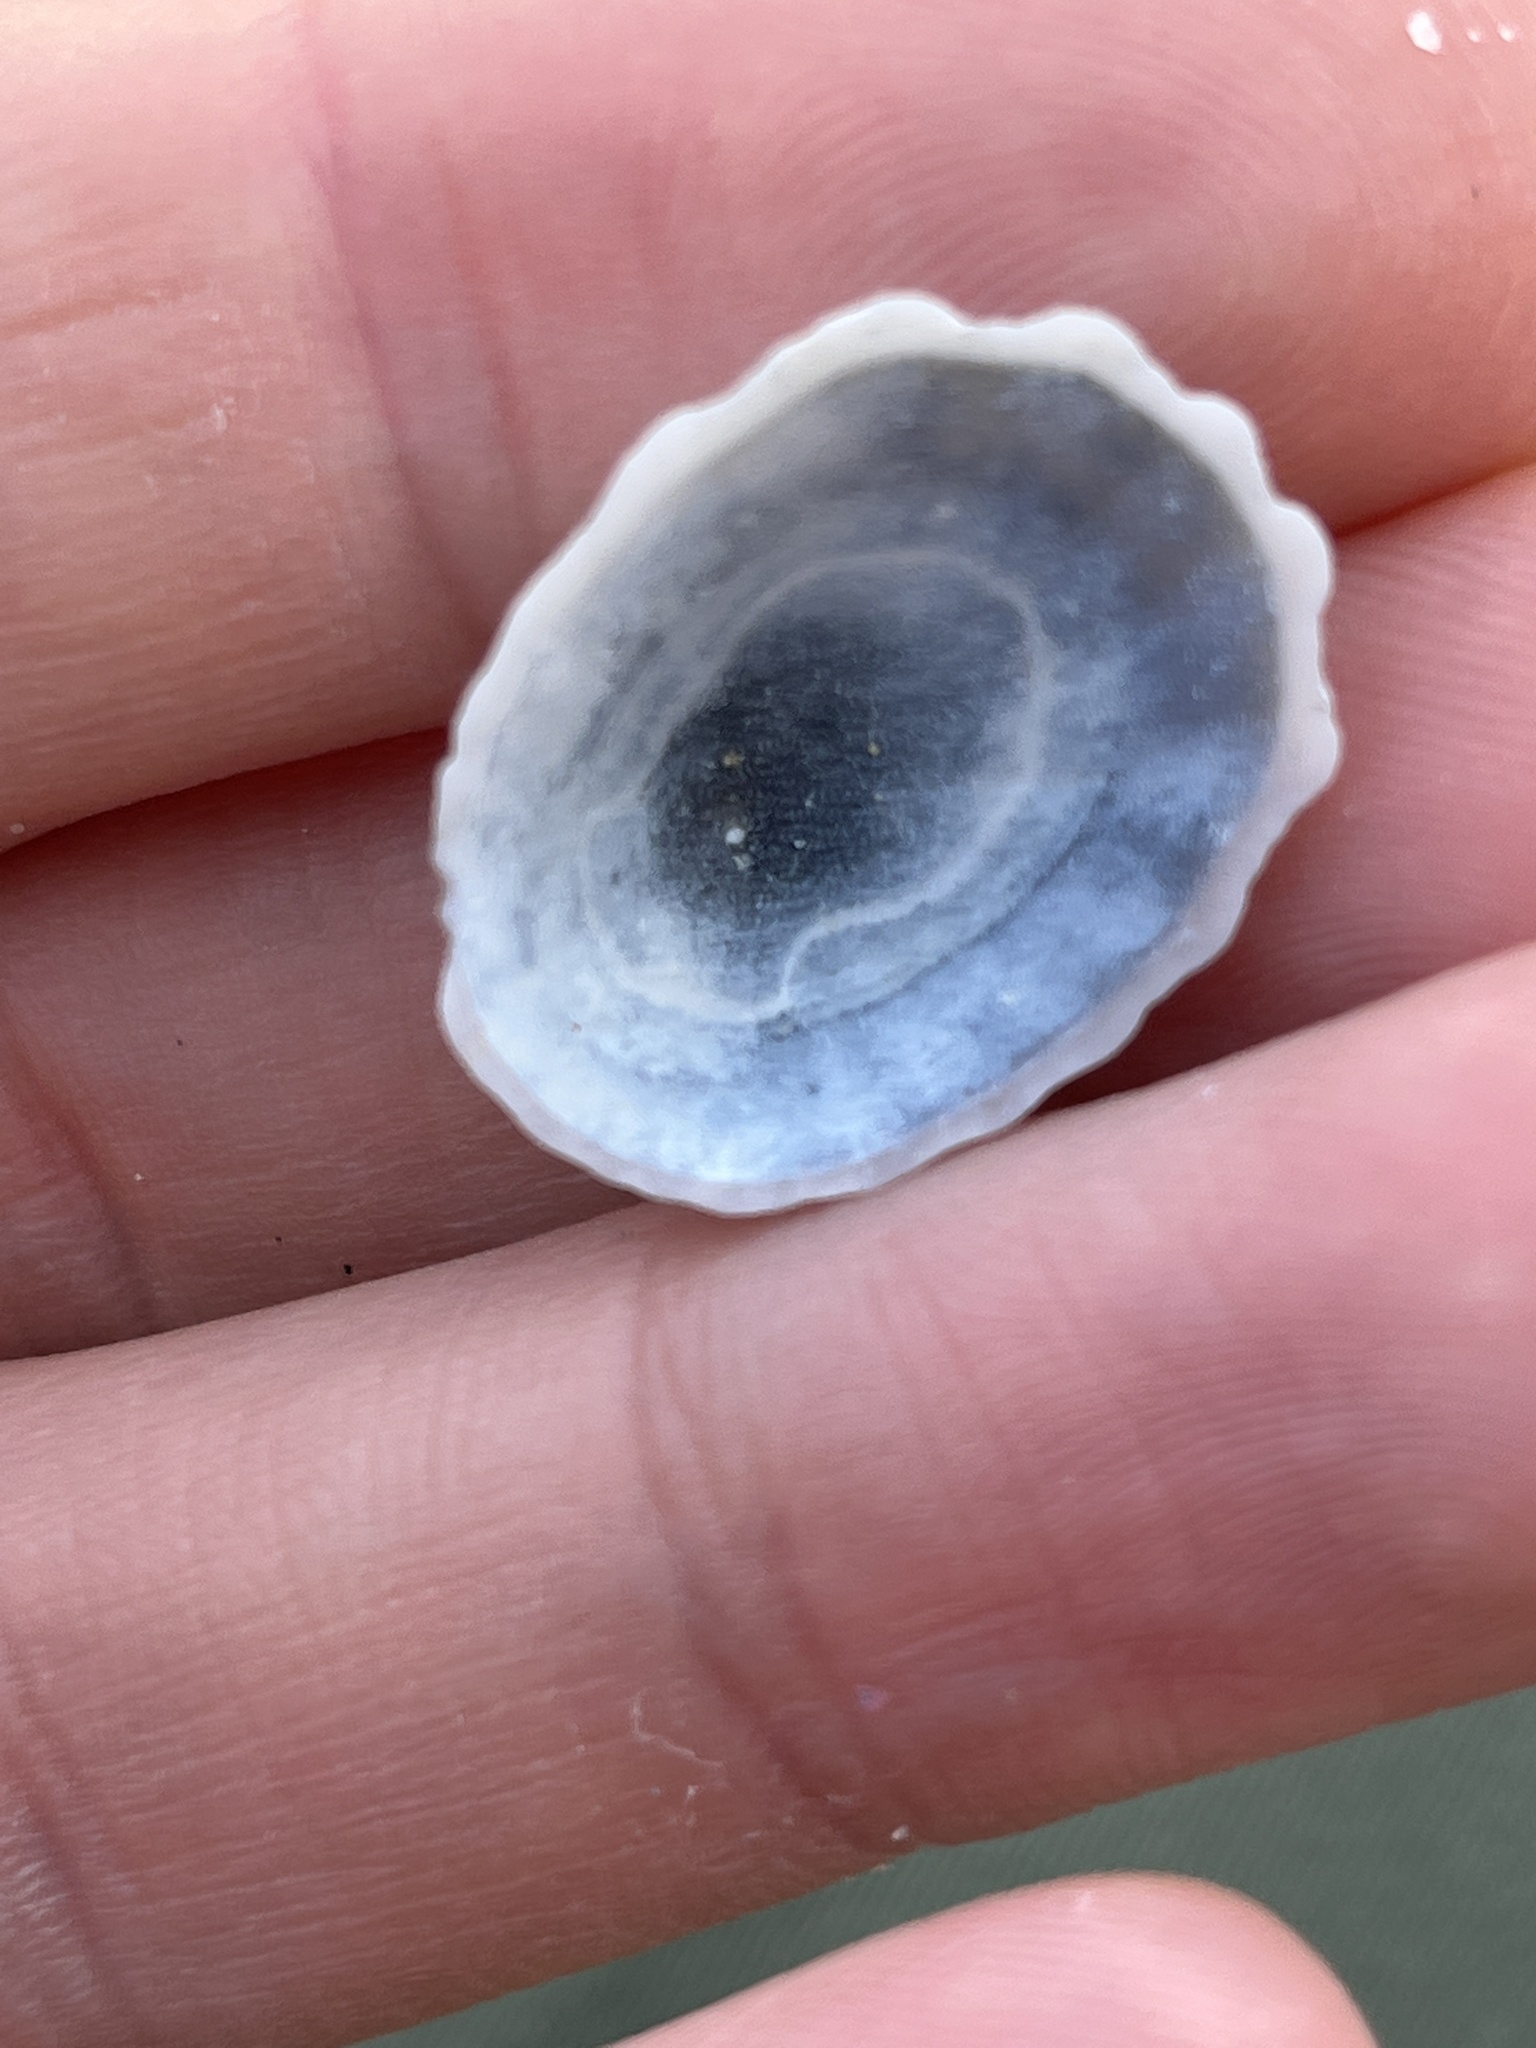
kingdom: Animalia
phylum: Mollusca
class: Gastropoda
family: Lottiidae
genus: Niveotectura
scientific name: Niveotectura pallida
